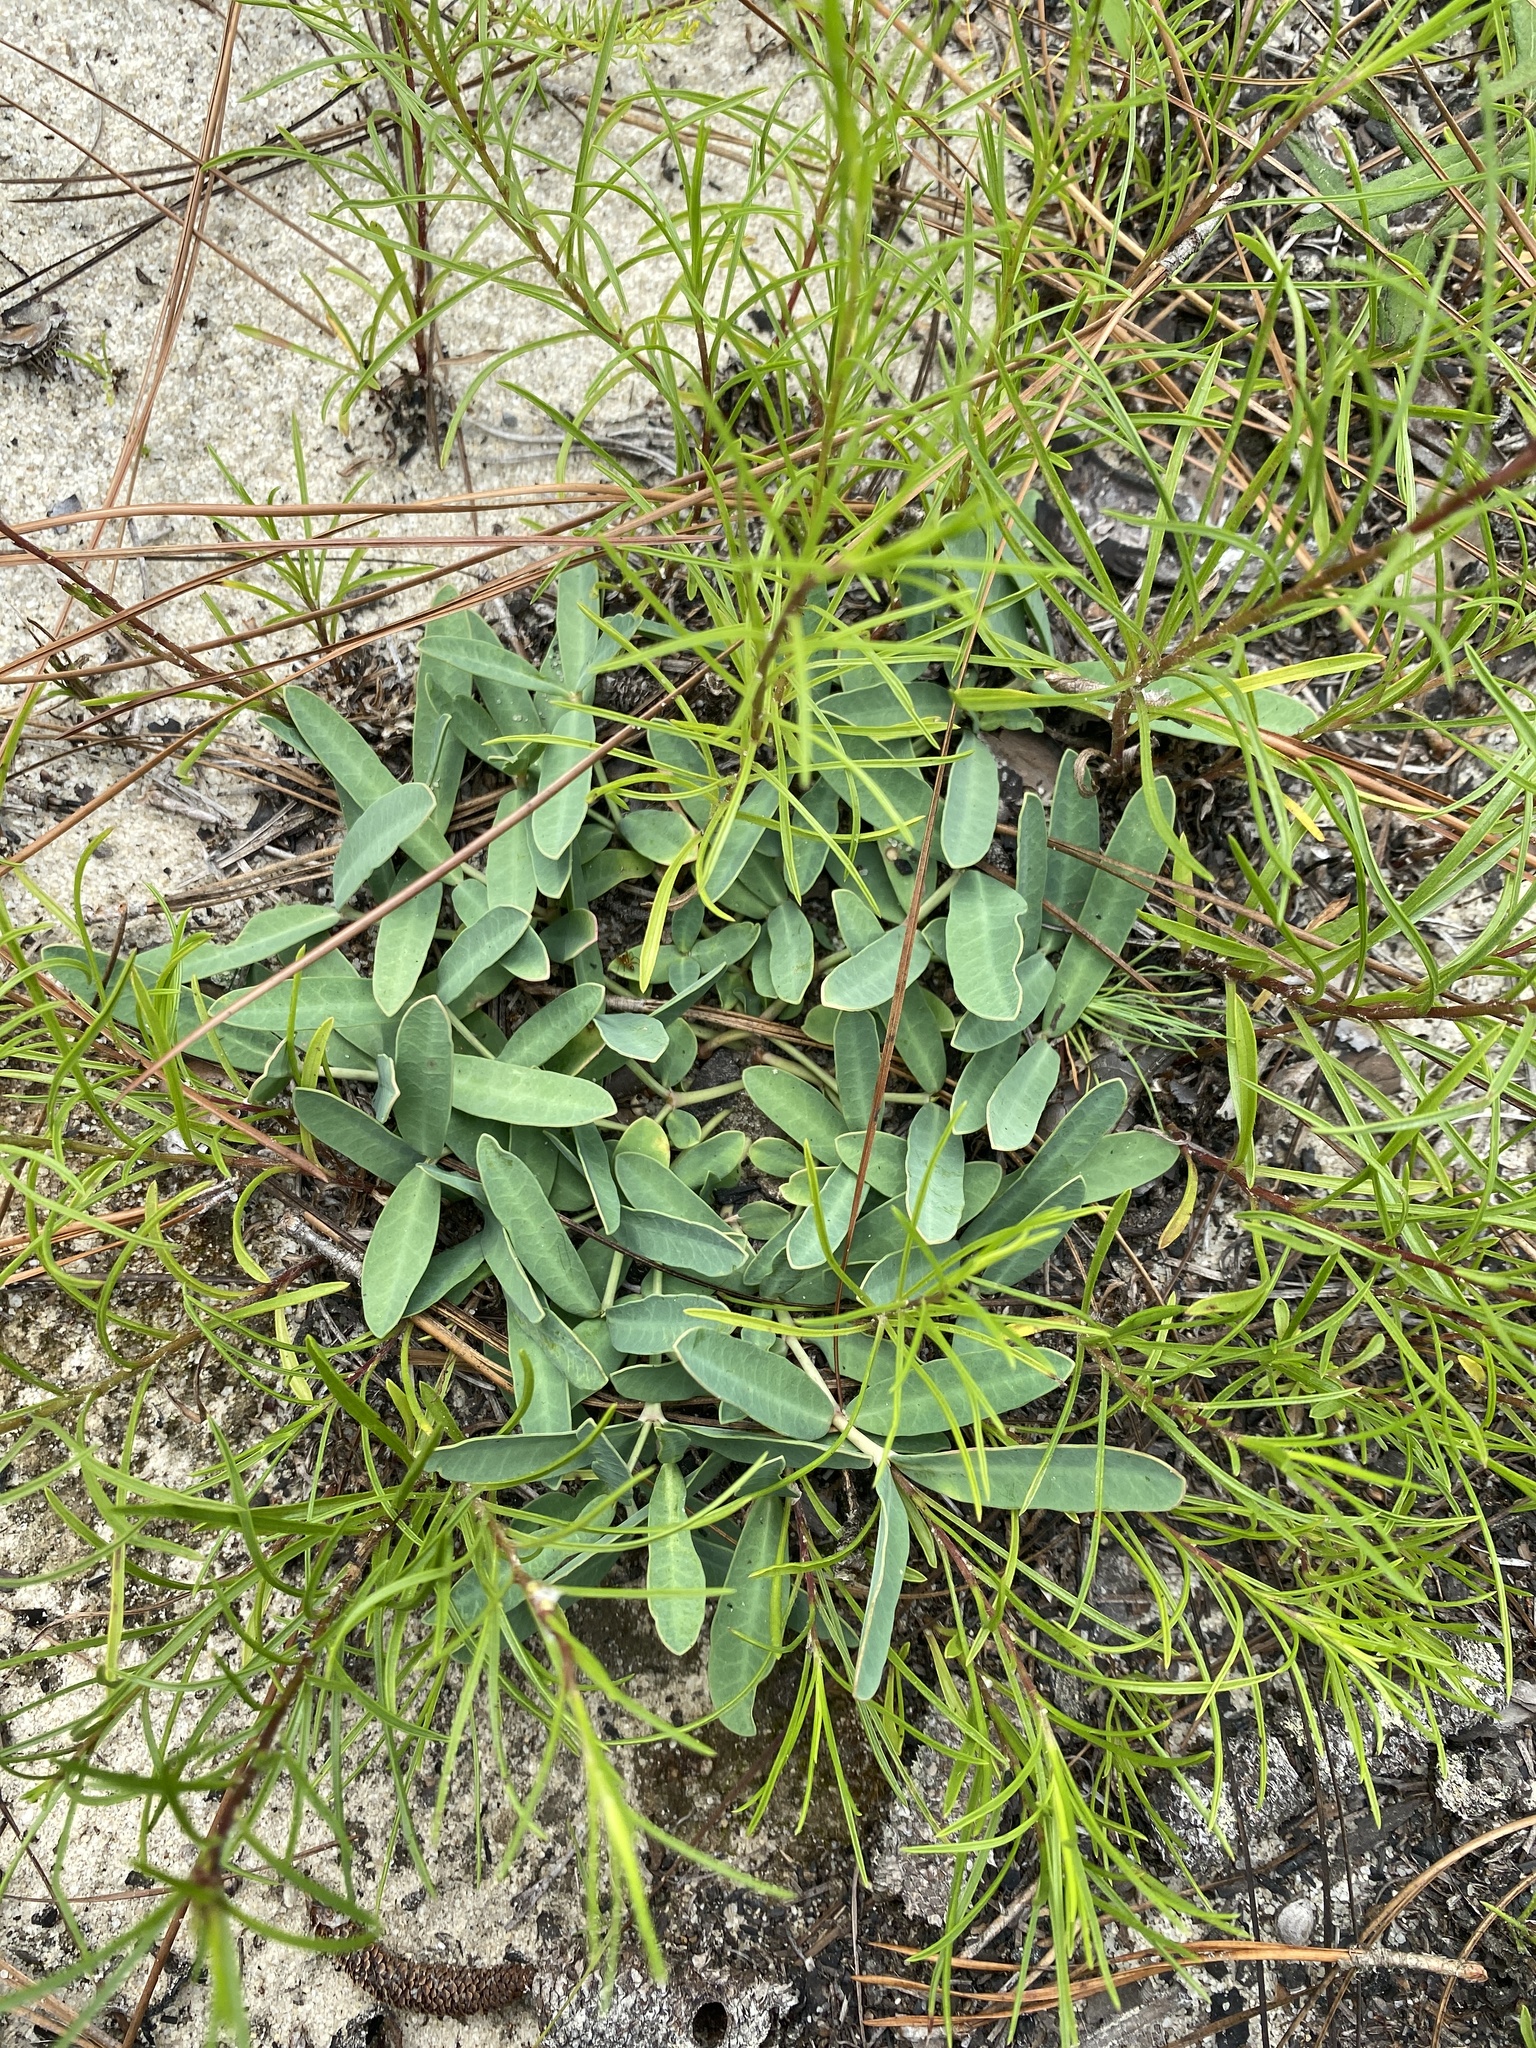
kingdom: Plantae
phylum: Tracheophyta
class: Magnoliopsida
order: Malpighiales
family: Euphorbiaceae
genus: Euphorbia
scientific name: Euphorbia ipecacuanhae
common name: Carolina ipecac
